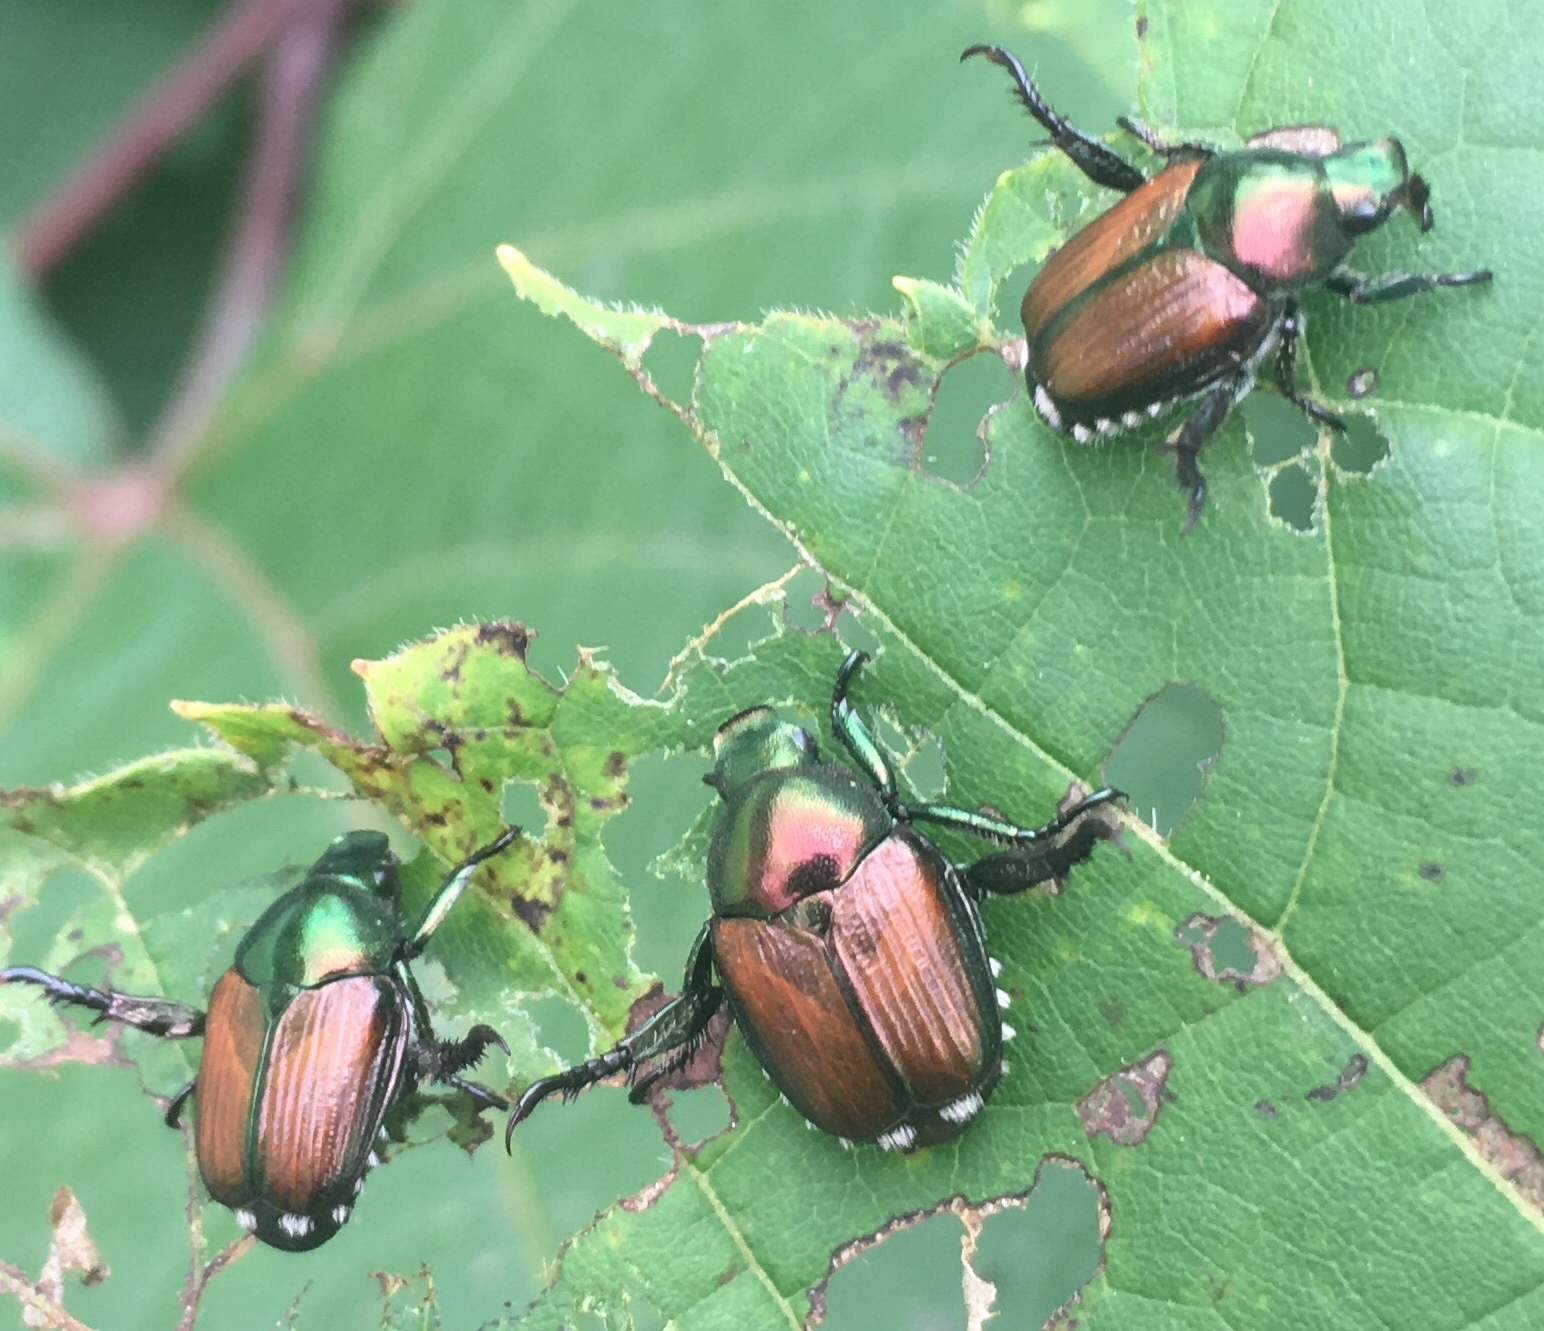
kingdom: Animalia
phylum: Arthropoda
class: Insecta
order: Coleoptera
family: Scarabaeidae
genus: Popillia
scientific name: Popillia japonica
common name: Japanese beetle
